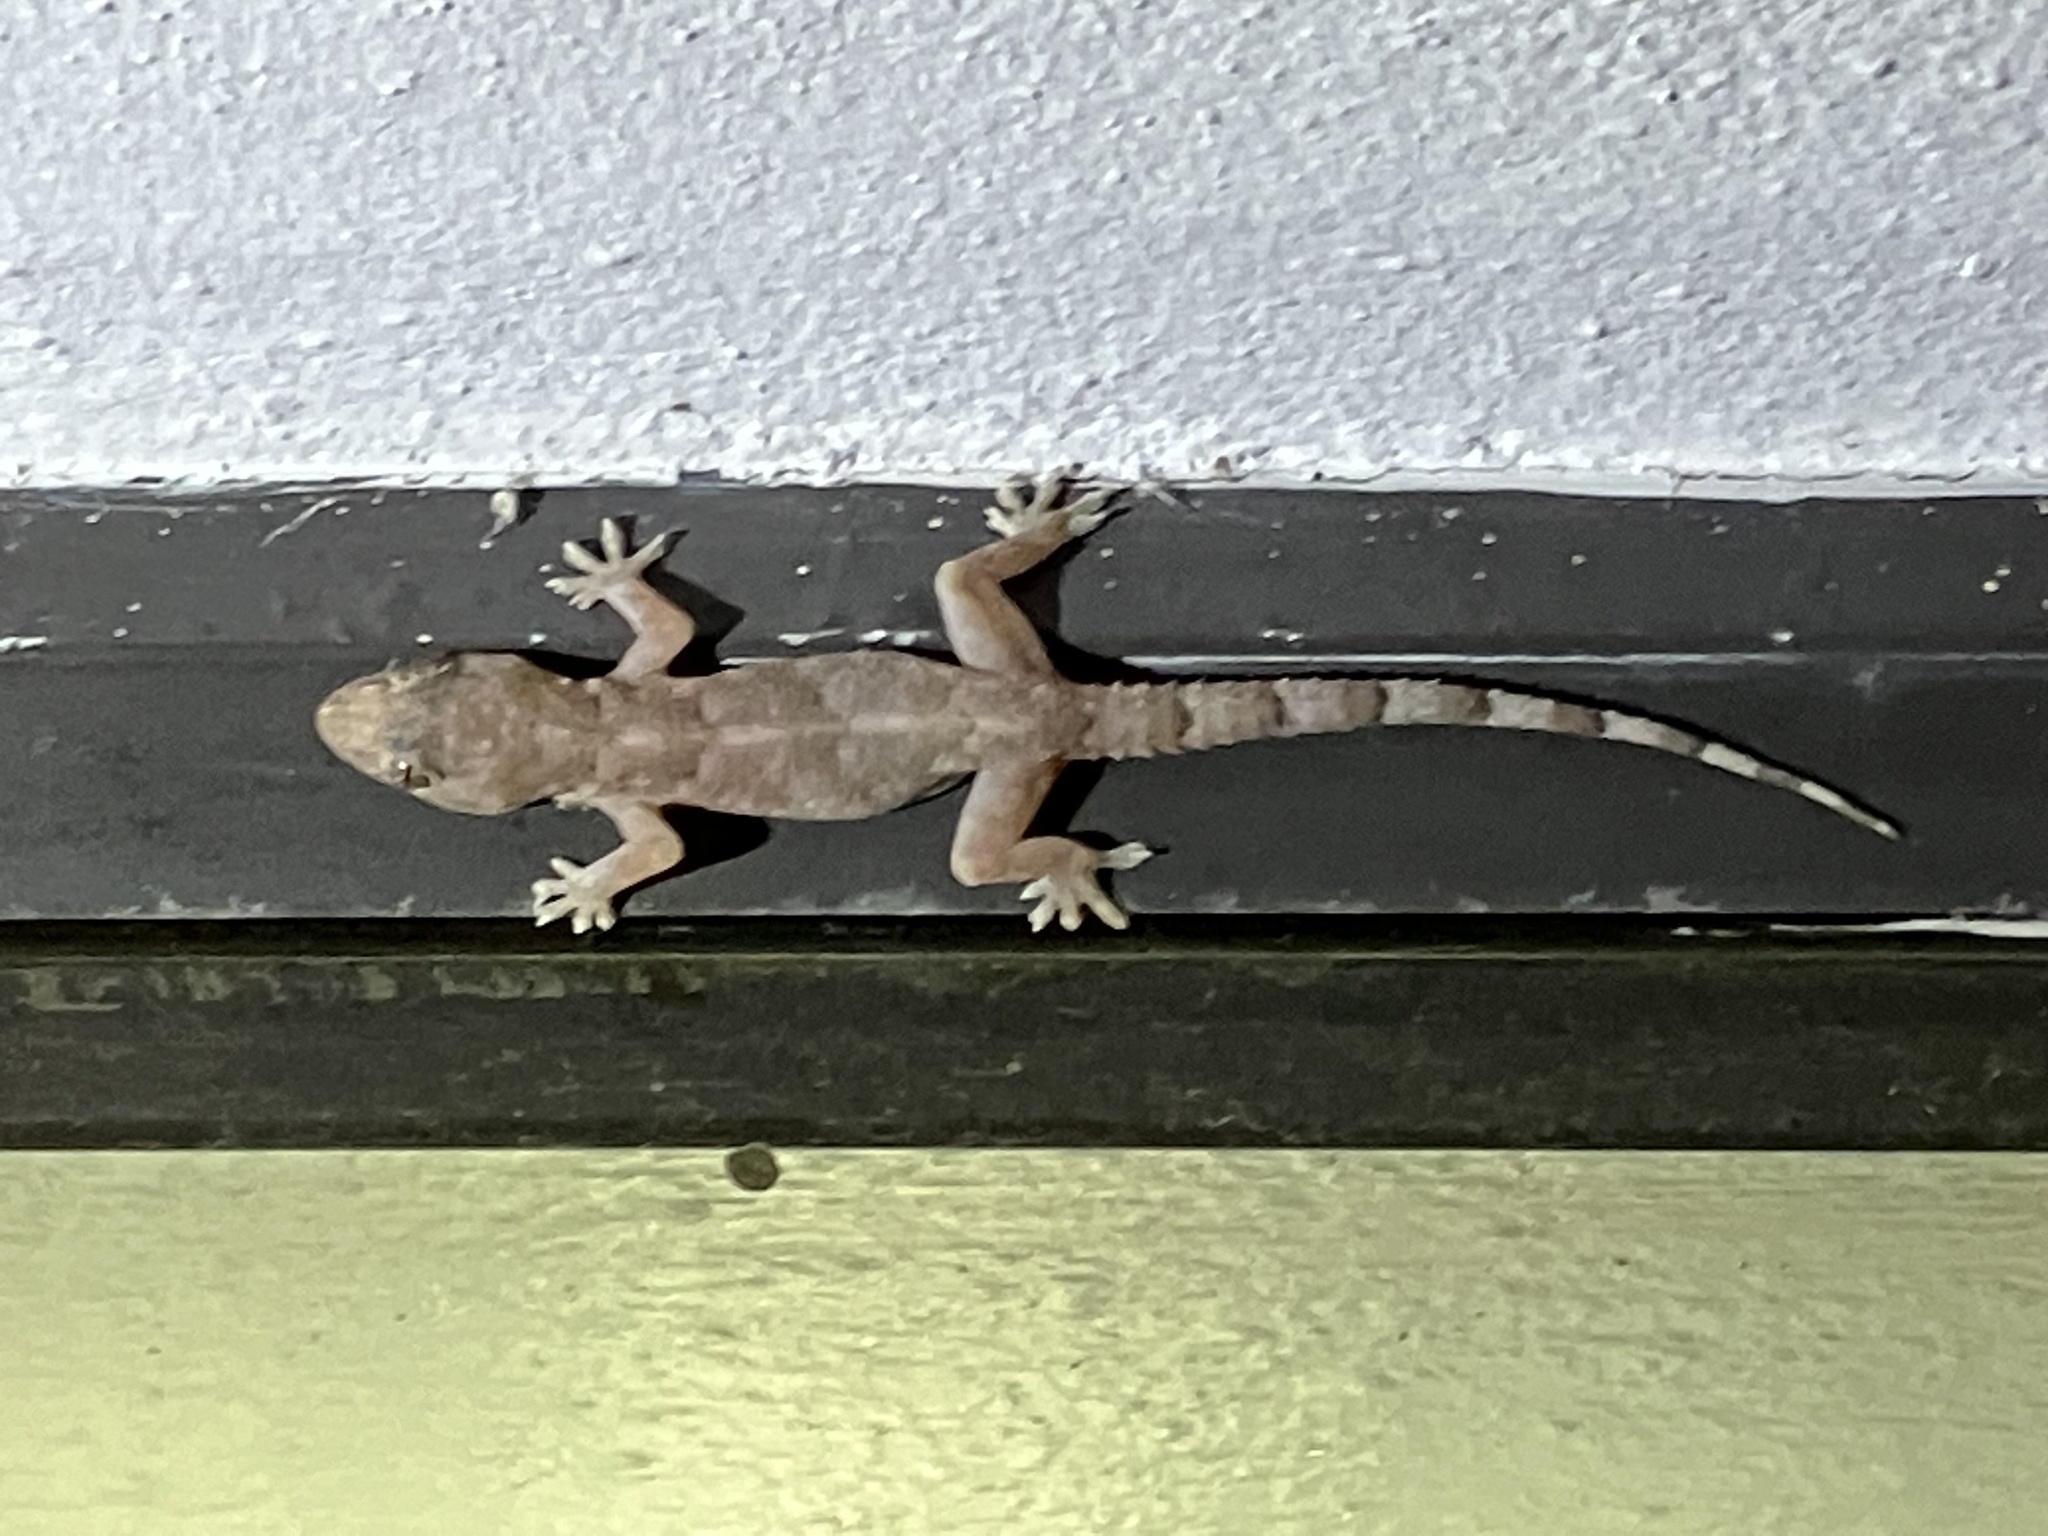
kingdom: Animalia
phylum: Chordata
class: Squamata
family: Gekkonidae
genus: Hemidactylus
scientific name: Hemidactylus mabouia
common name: House gecko
